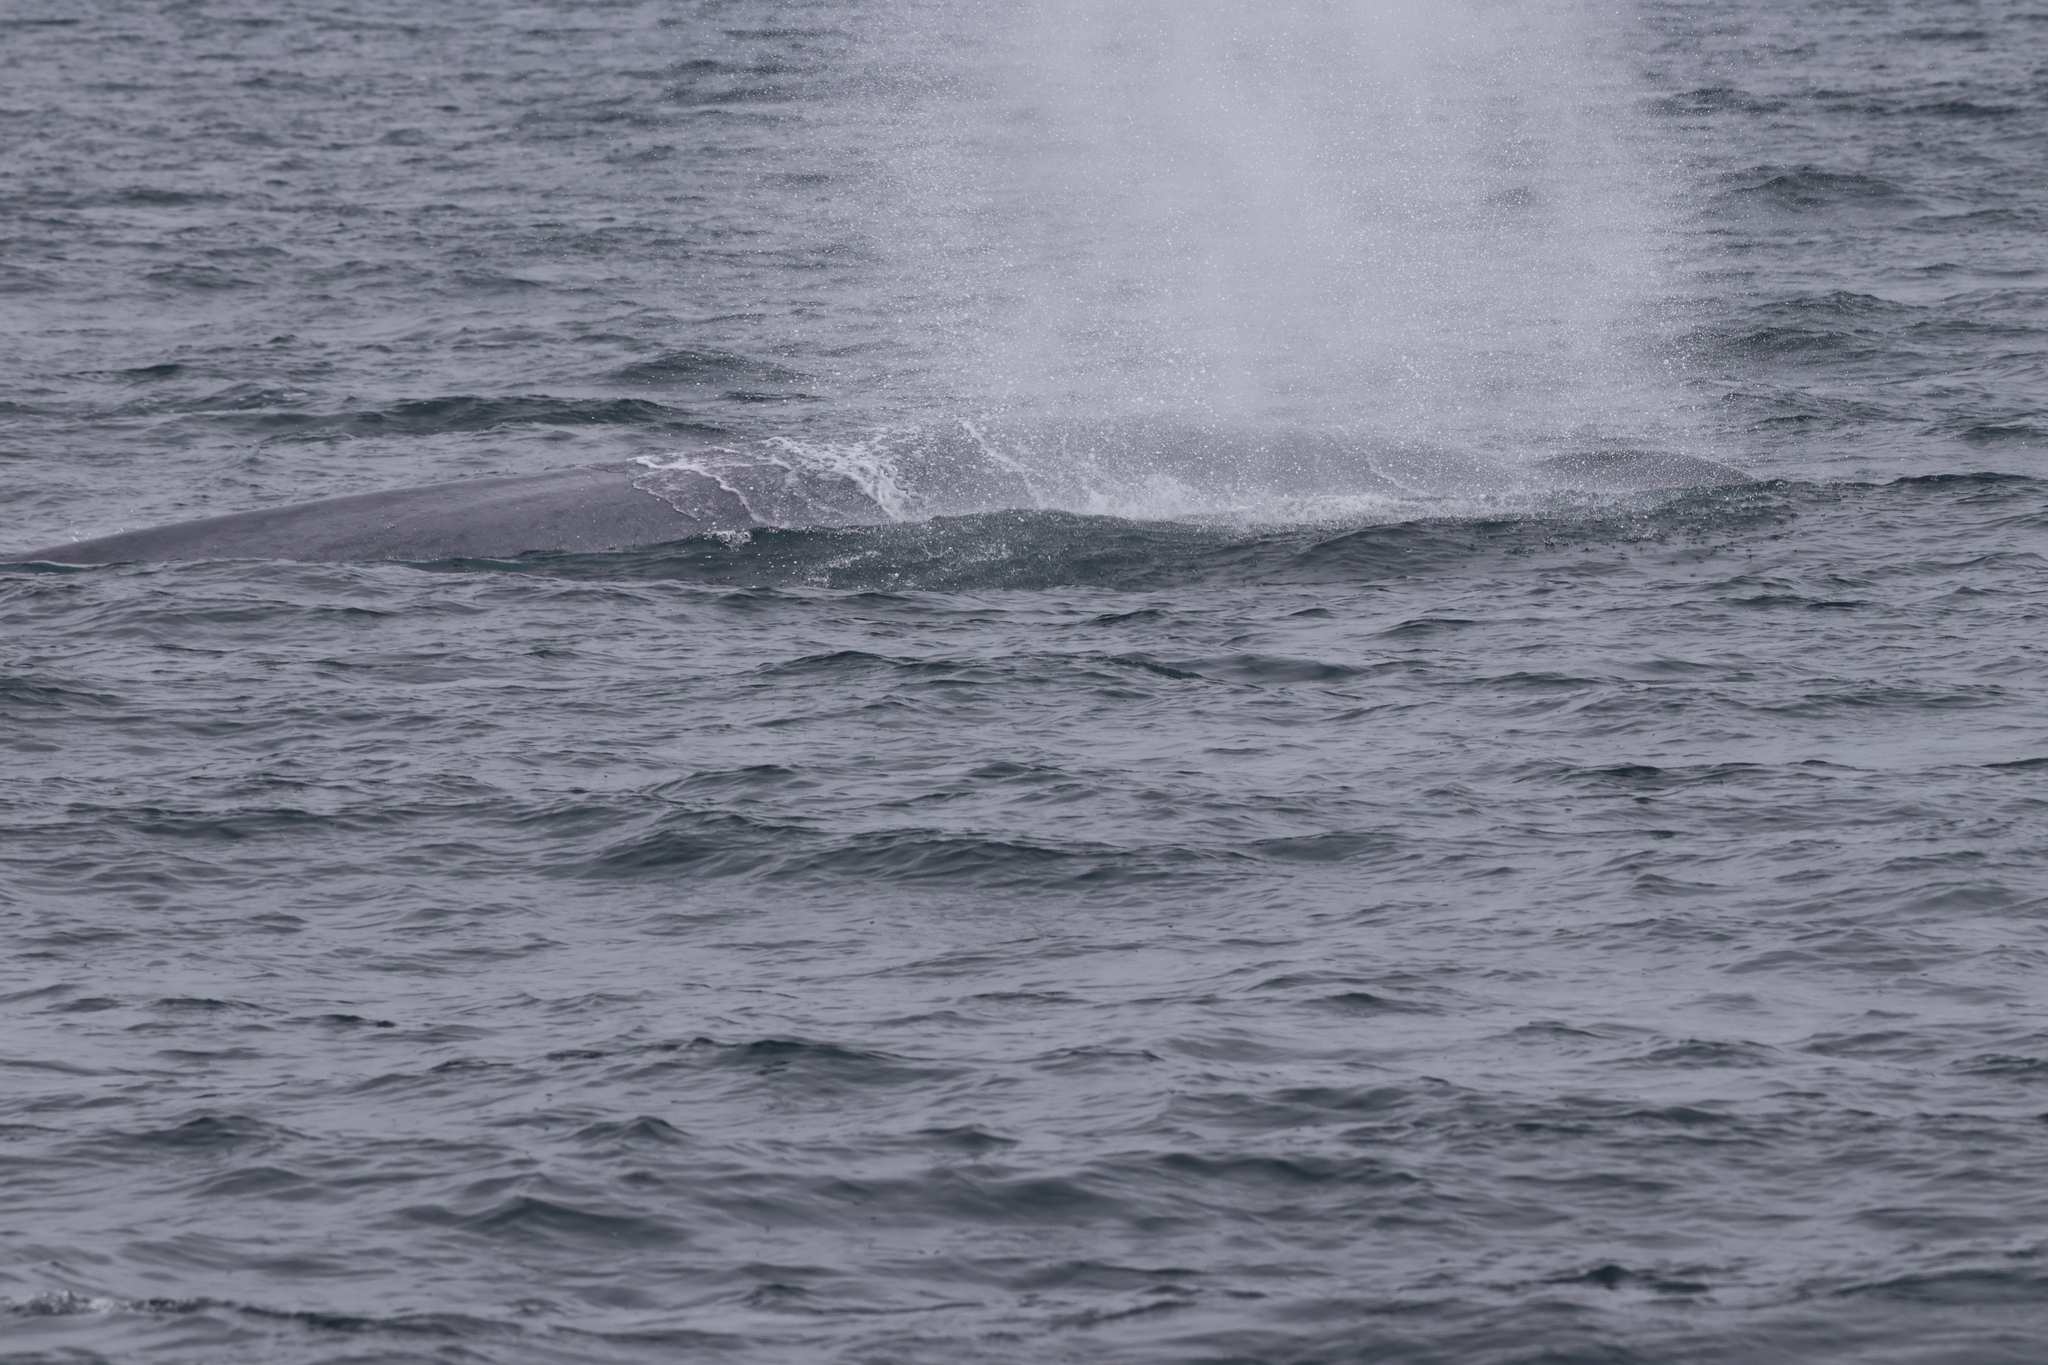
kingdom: Animalia
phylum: Chordata
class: Mammalia
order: Cetacea
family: Balaenopteridae
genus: Balaenoptera
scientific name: Balaenoptera musculus
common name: Blue whale
